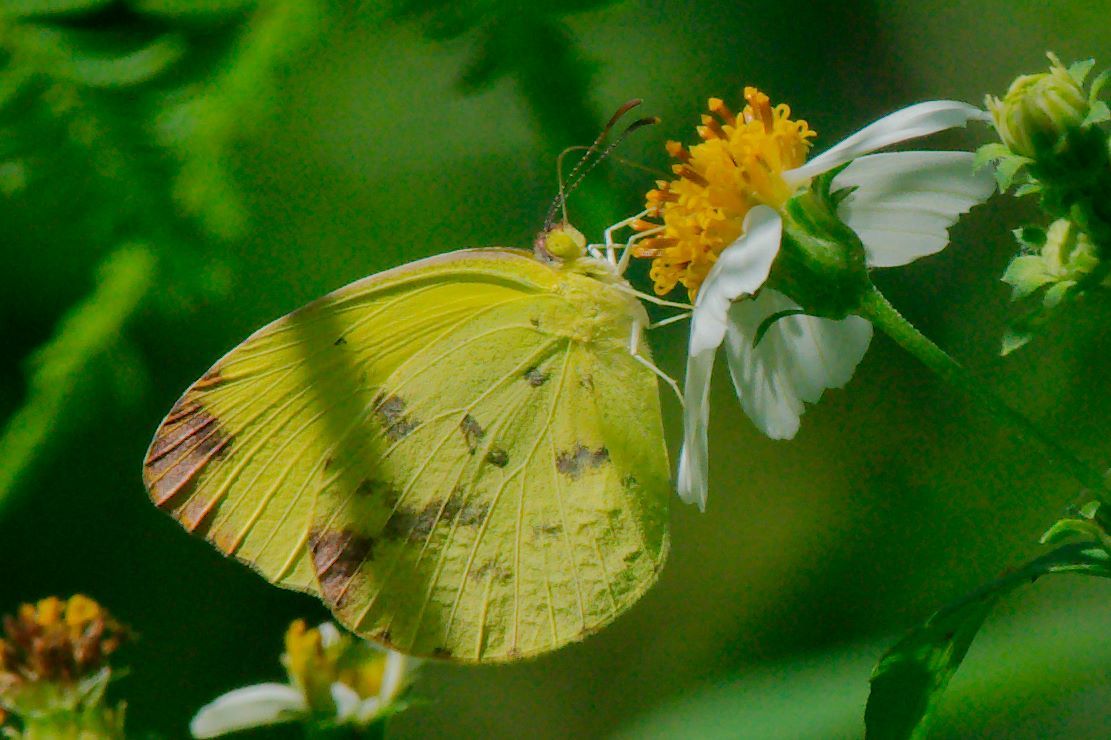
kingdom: Animalia
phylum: Arthropoda
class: Insecta
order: Lepidoptera
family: Pieridae
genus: Pyrisitia
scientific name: Pyrisitia dina
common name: Dina yellow
